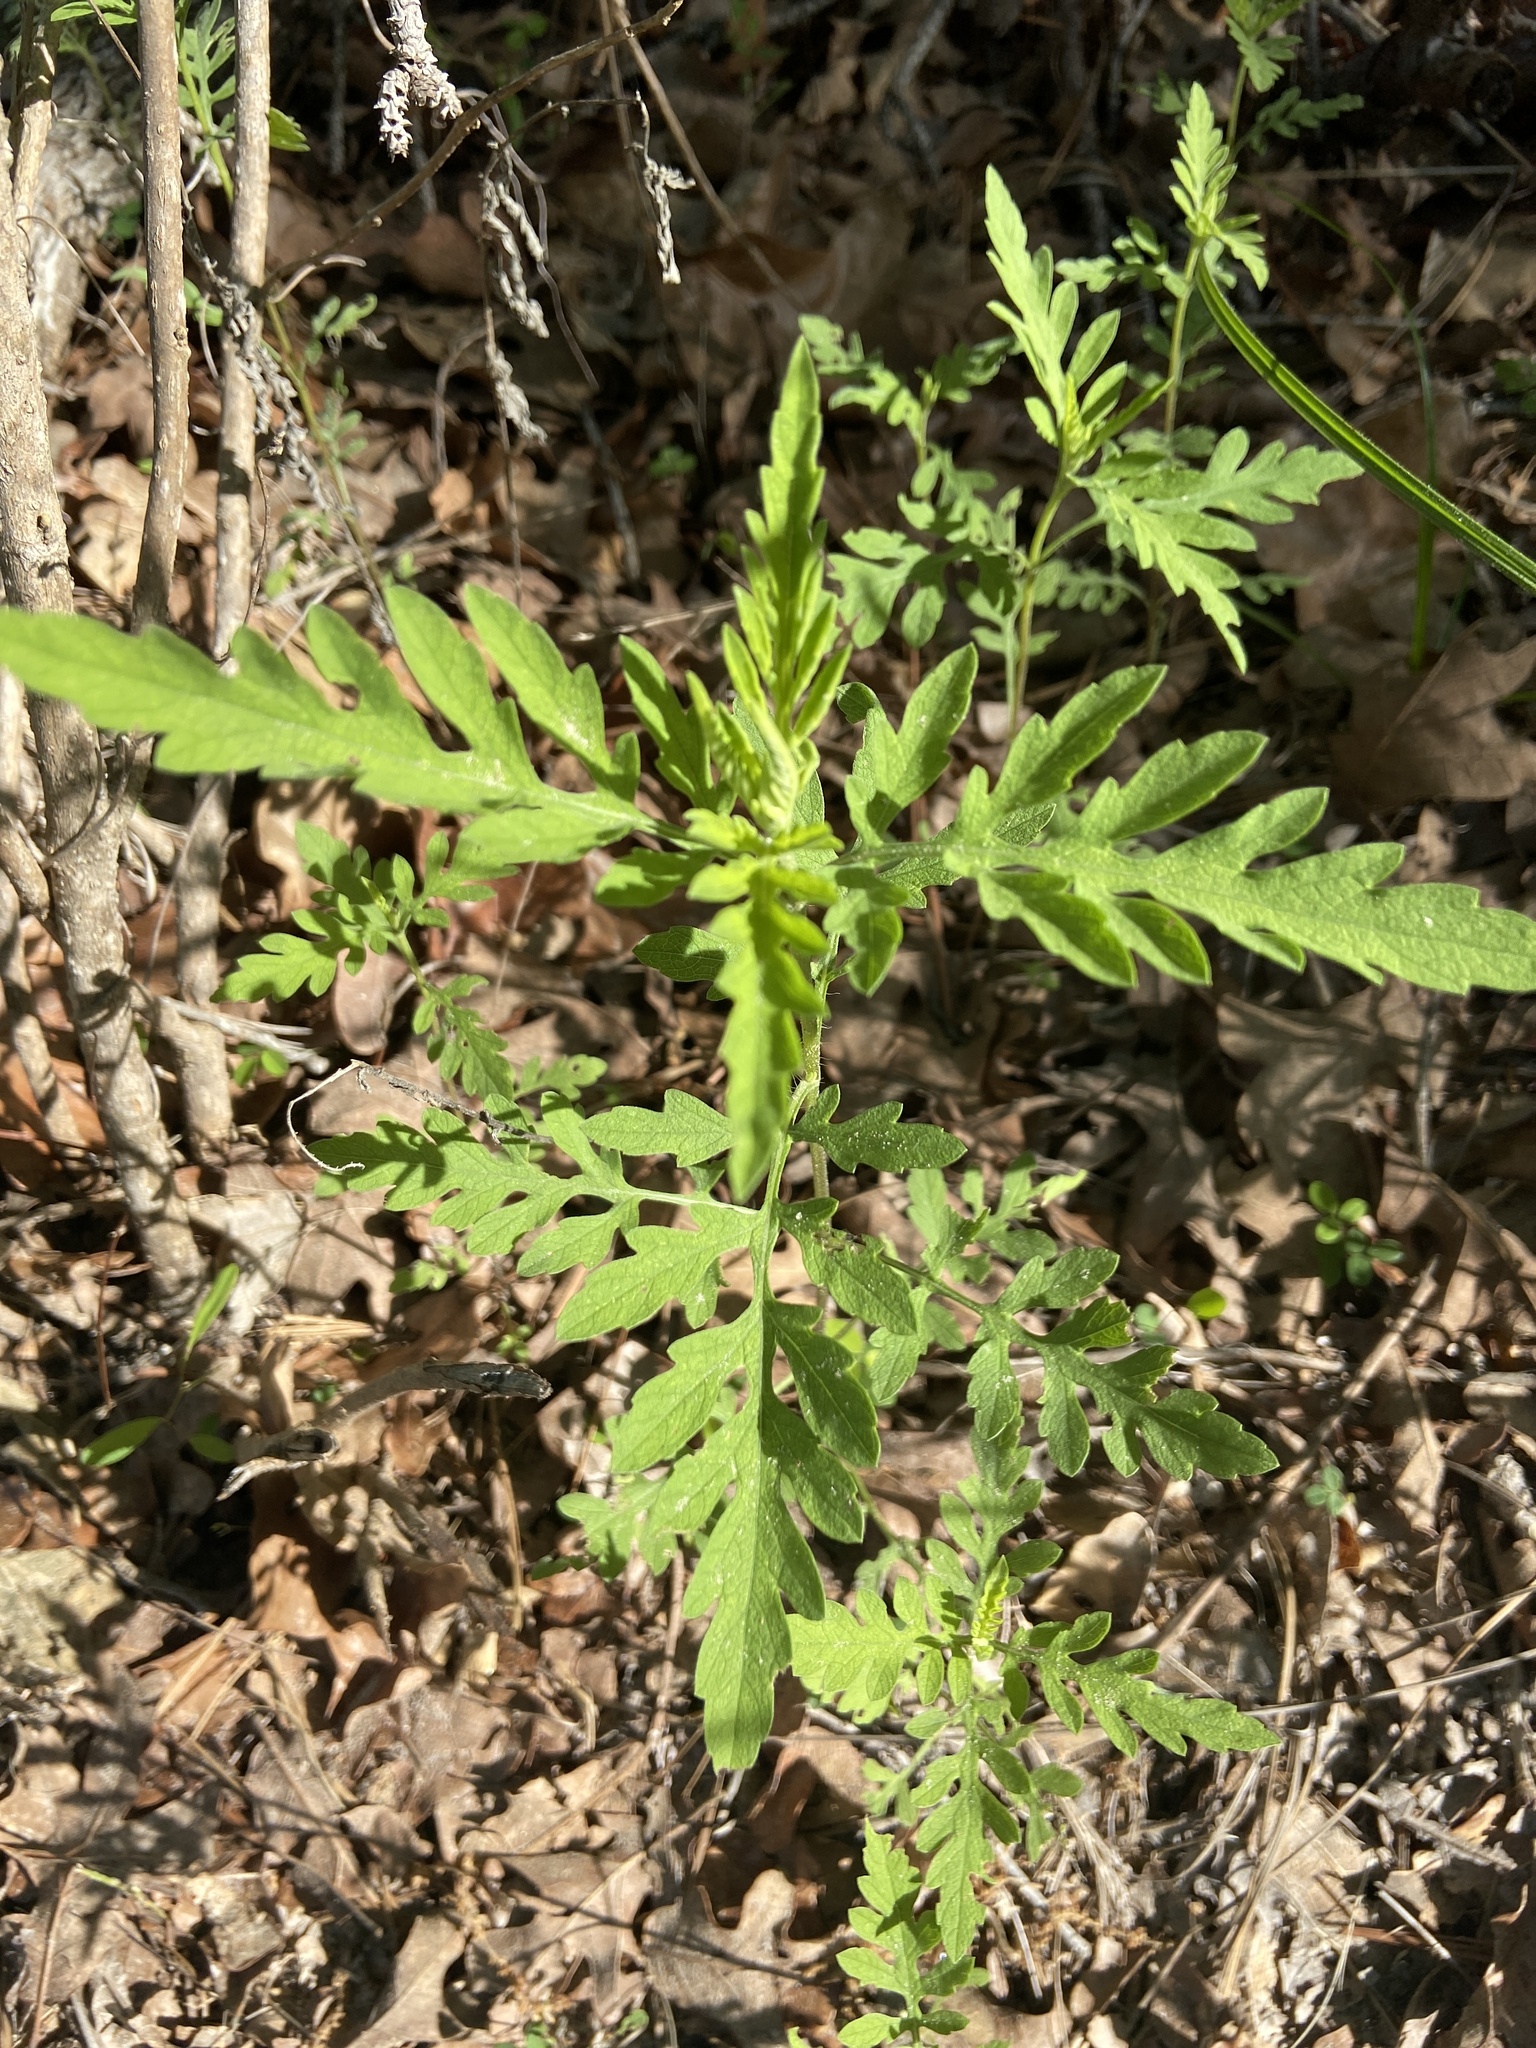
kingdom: Plantae
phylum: Tracheophyta
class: Magnoliopsida
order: Asterales
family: Asteraceae
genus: Ambrosia
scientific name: Ambrosia psilostachya
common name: Perennial ragweed
